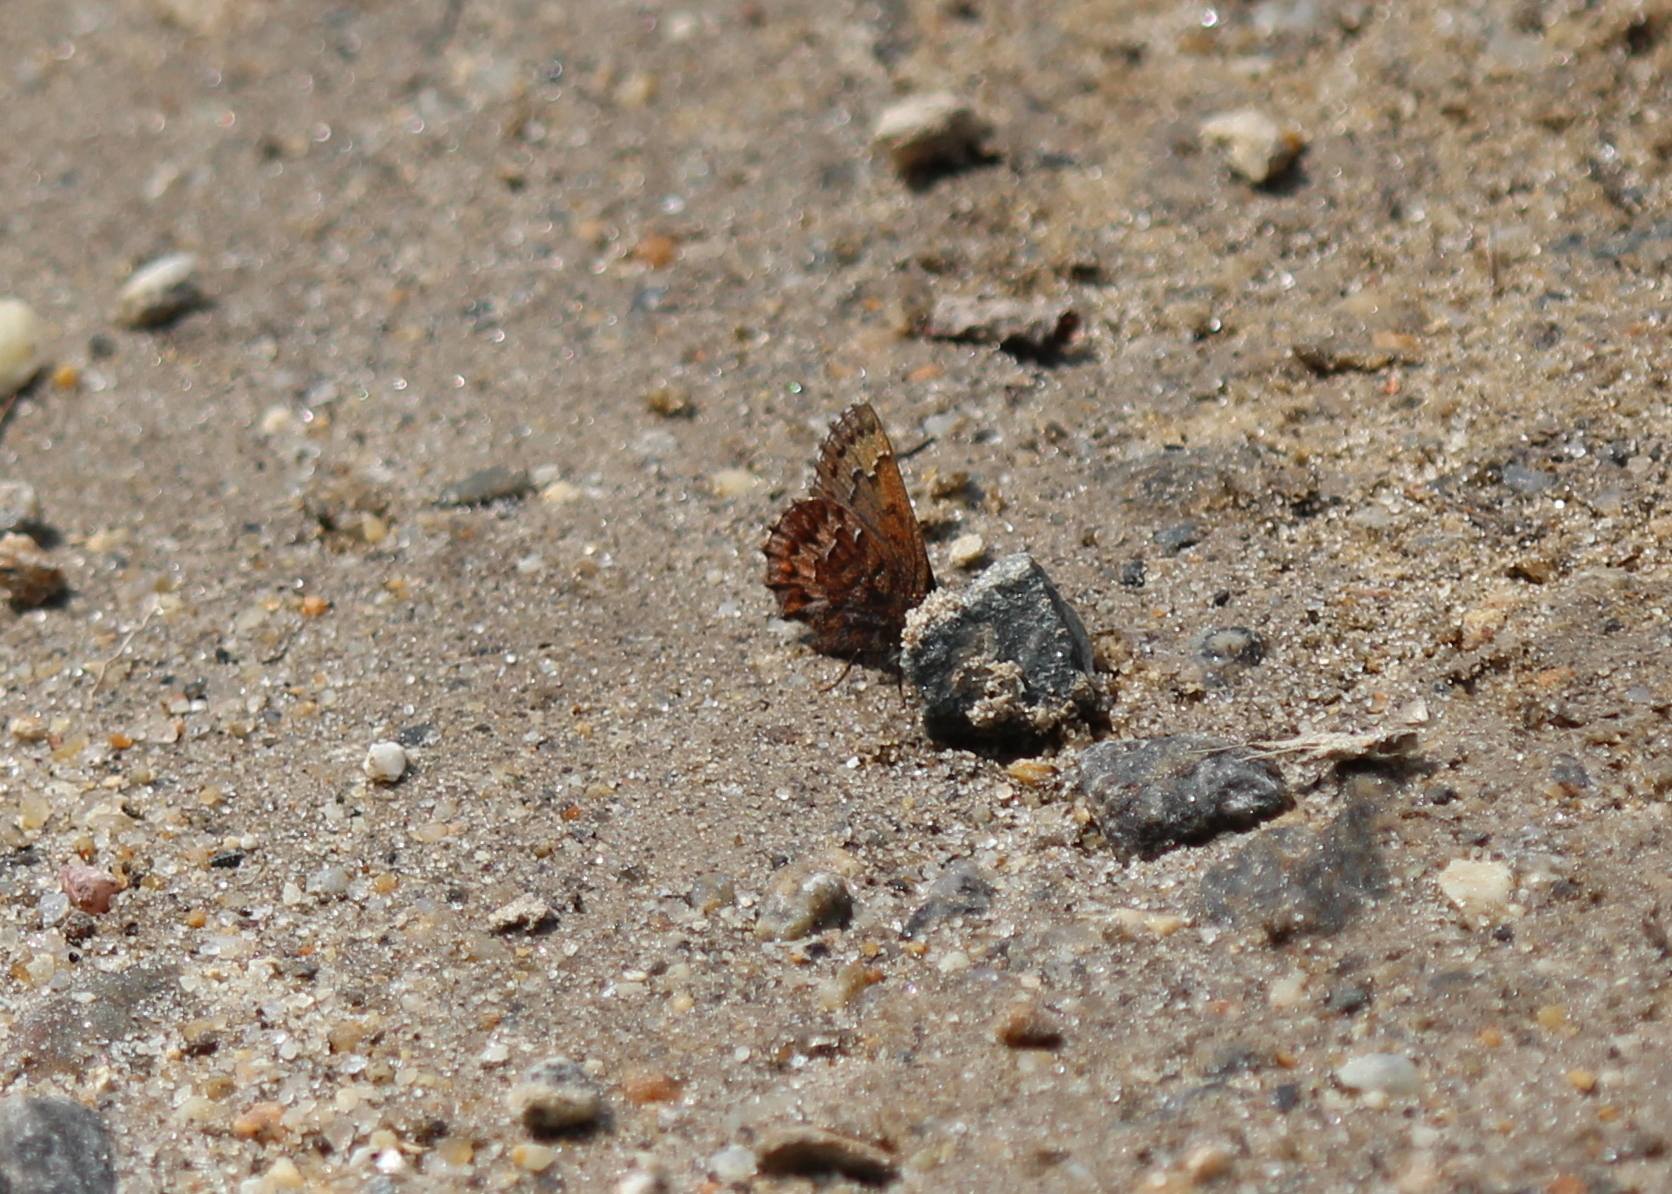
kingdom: Animalia
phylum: Arthropoda
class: Insecta
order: Lepidoptera
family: Lycaenidae
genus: Incisalia
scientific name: Incisalia niphon
